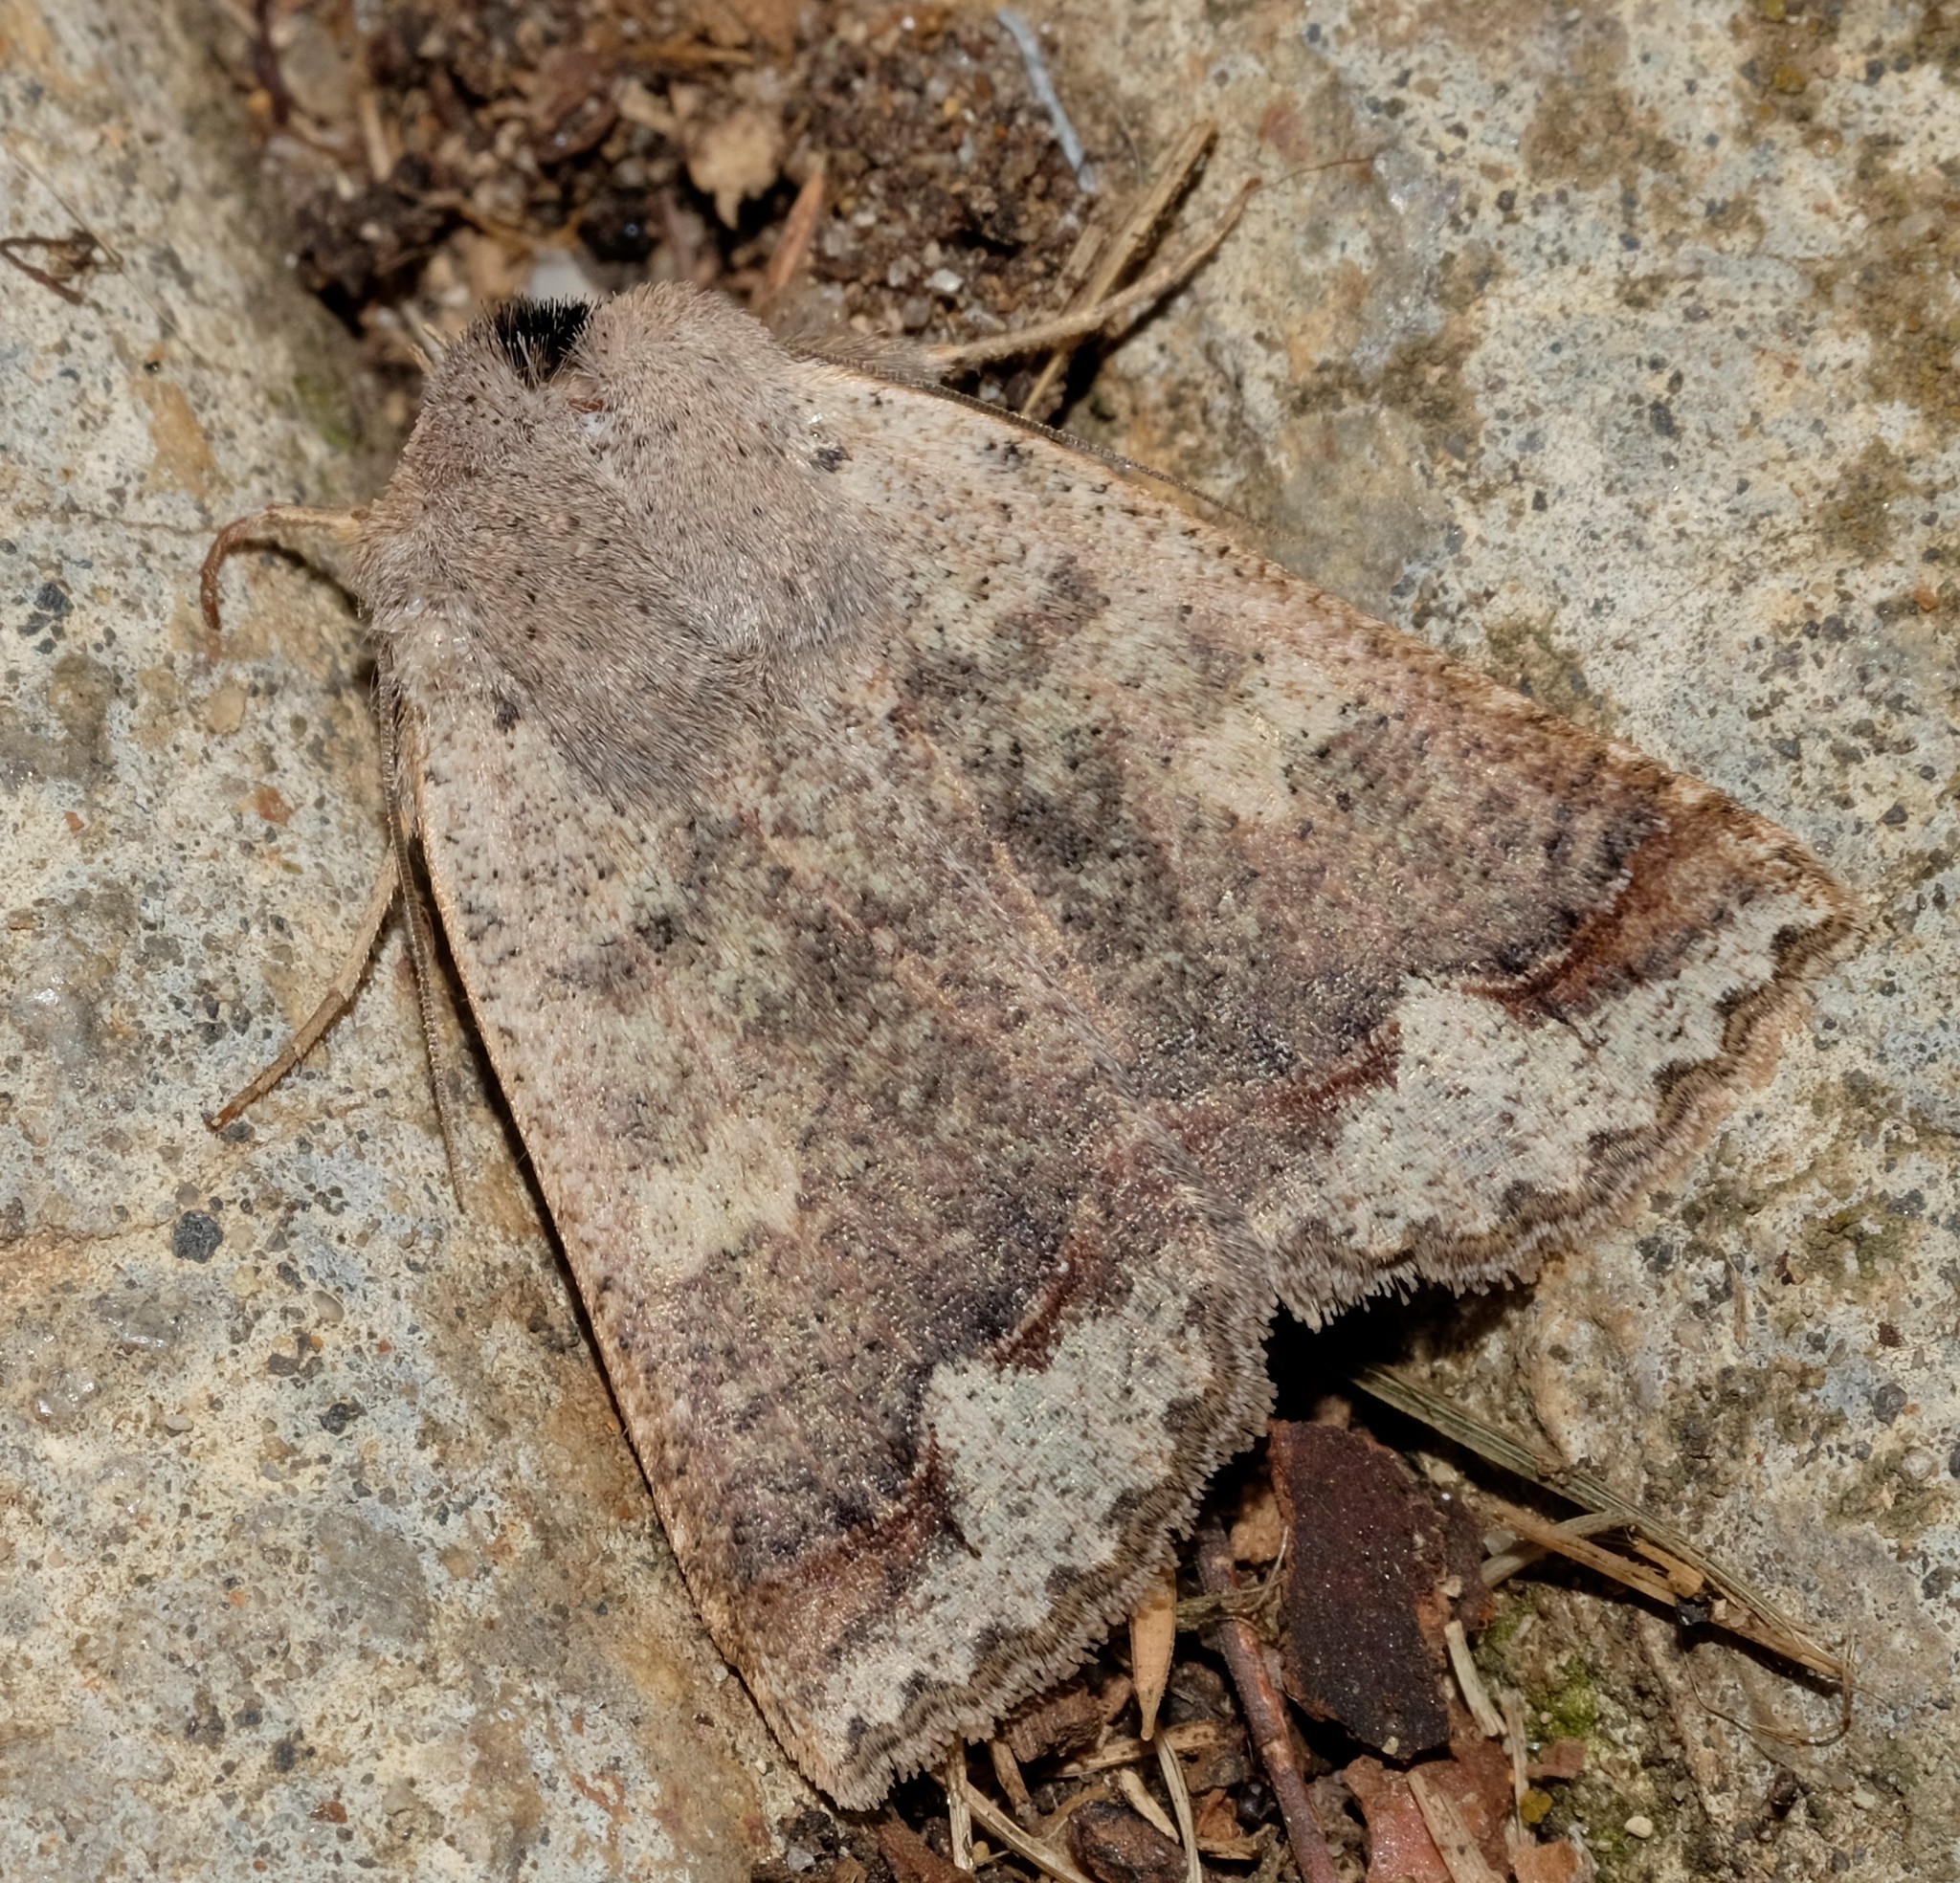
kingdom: Animalia
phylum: Arthropoda
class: Insecta
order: Lepidoptera
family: Erebidae
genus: Pantydia
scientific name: Pantydia diemeni
